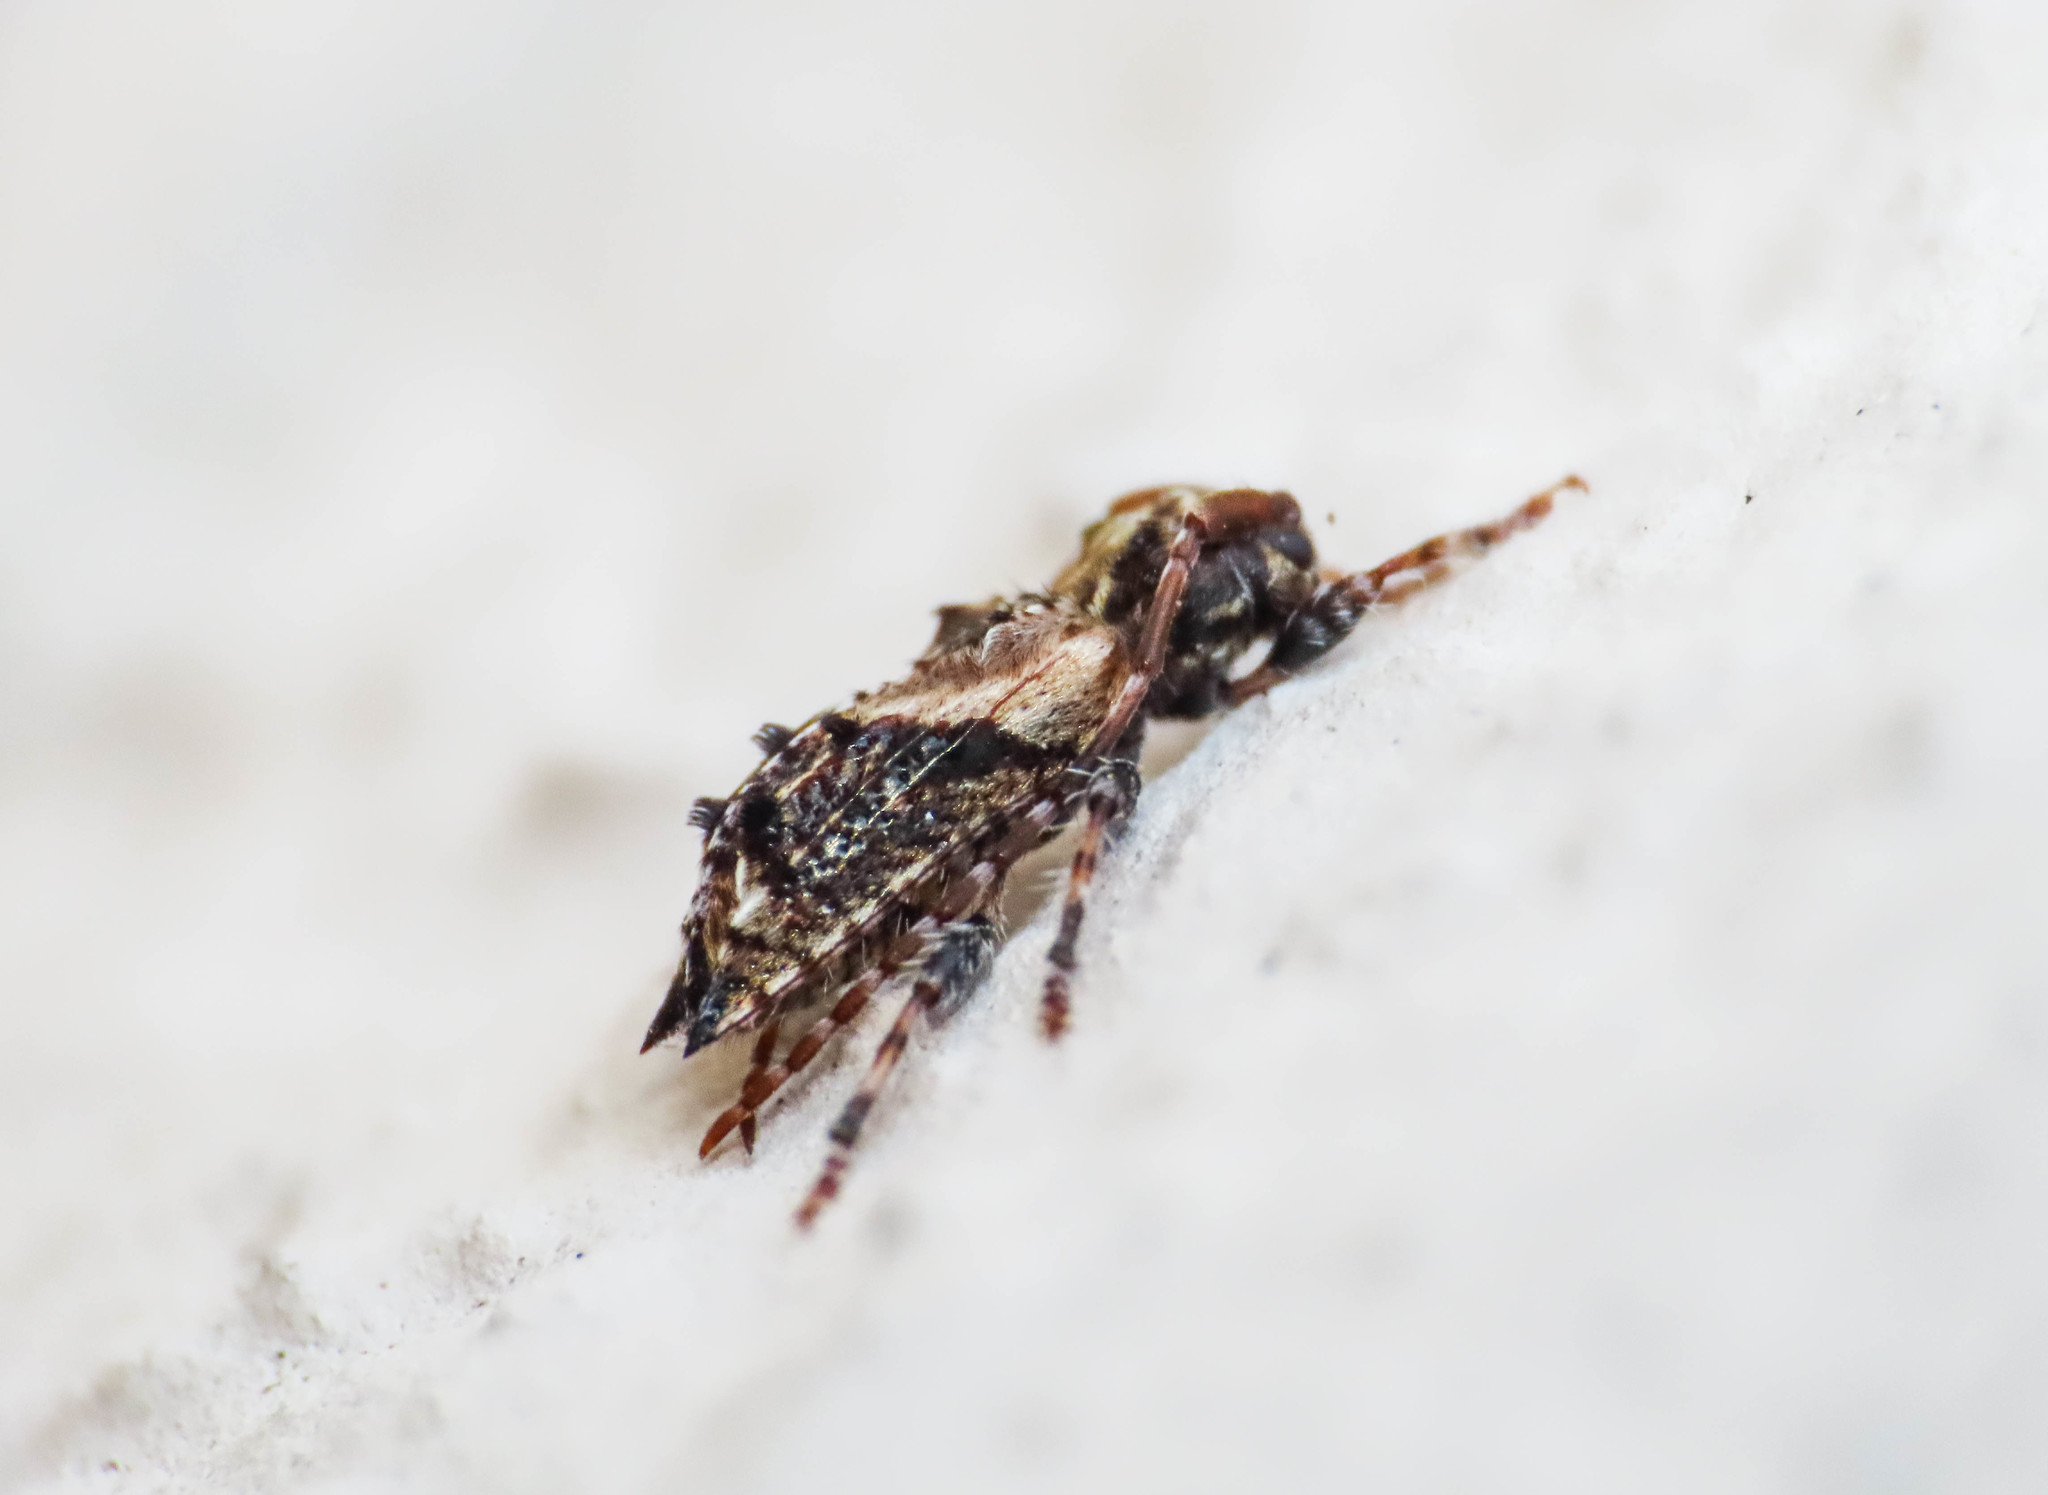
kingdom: Animalia
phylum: Arthropoda
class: Insecta
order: Coleoptera
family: Cerambycidae
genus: Pogonocherus
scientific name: Pogonocherus hispidus
